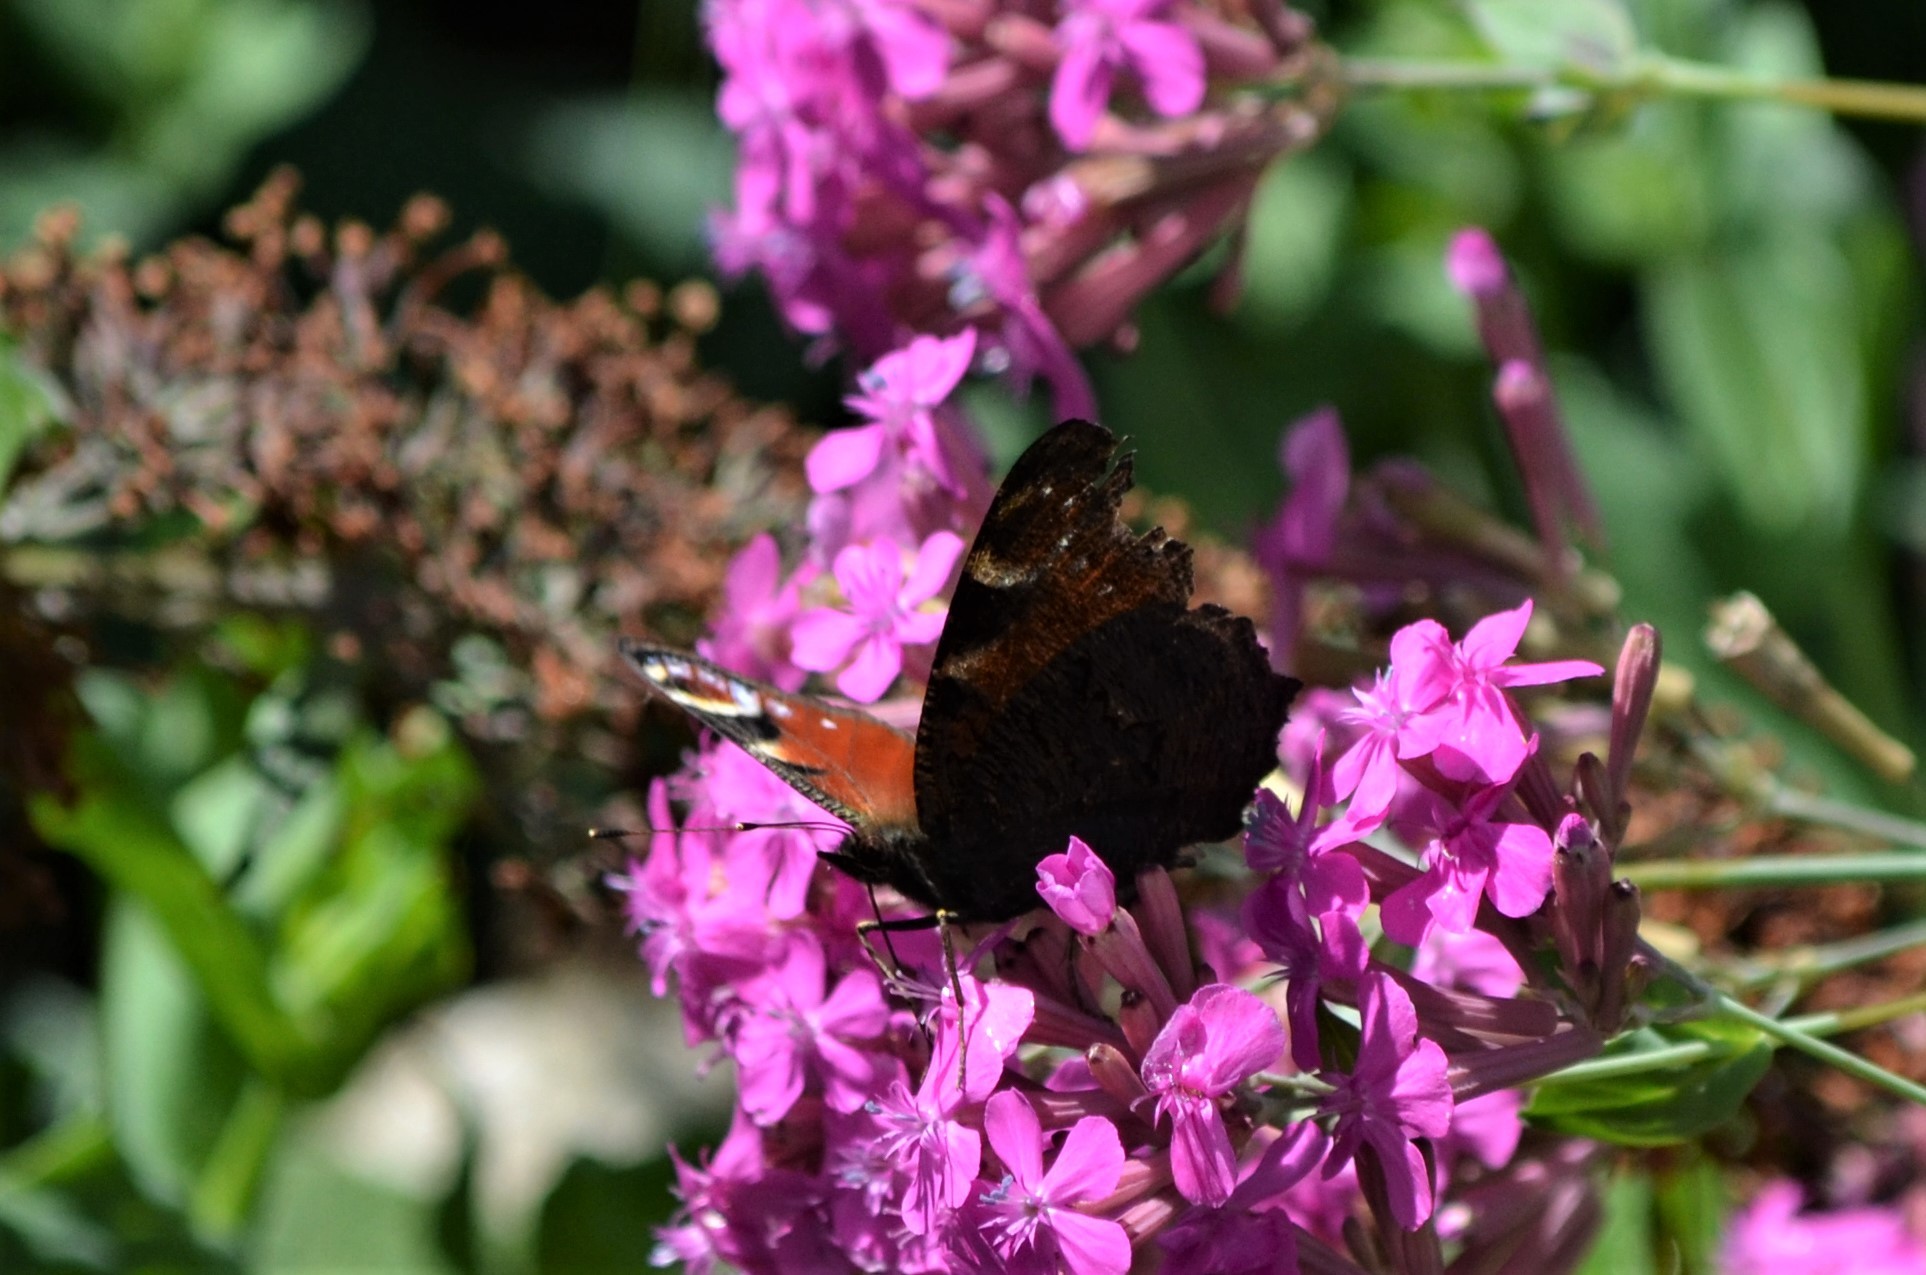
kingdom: Animalia
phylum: Arthropoda
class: Insecta
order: Lepidoptera
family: Nymphalidae
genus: Aglais
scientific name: Aglais io
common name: Peacock
